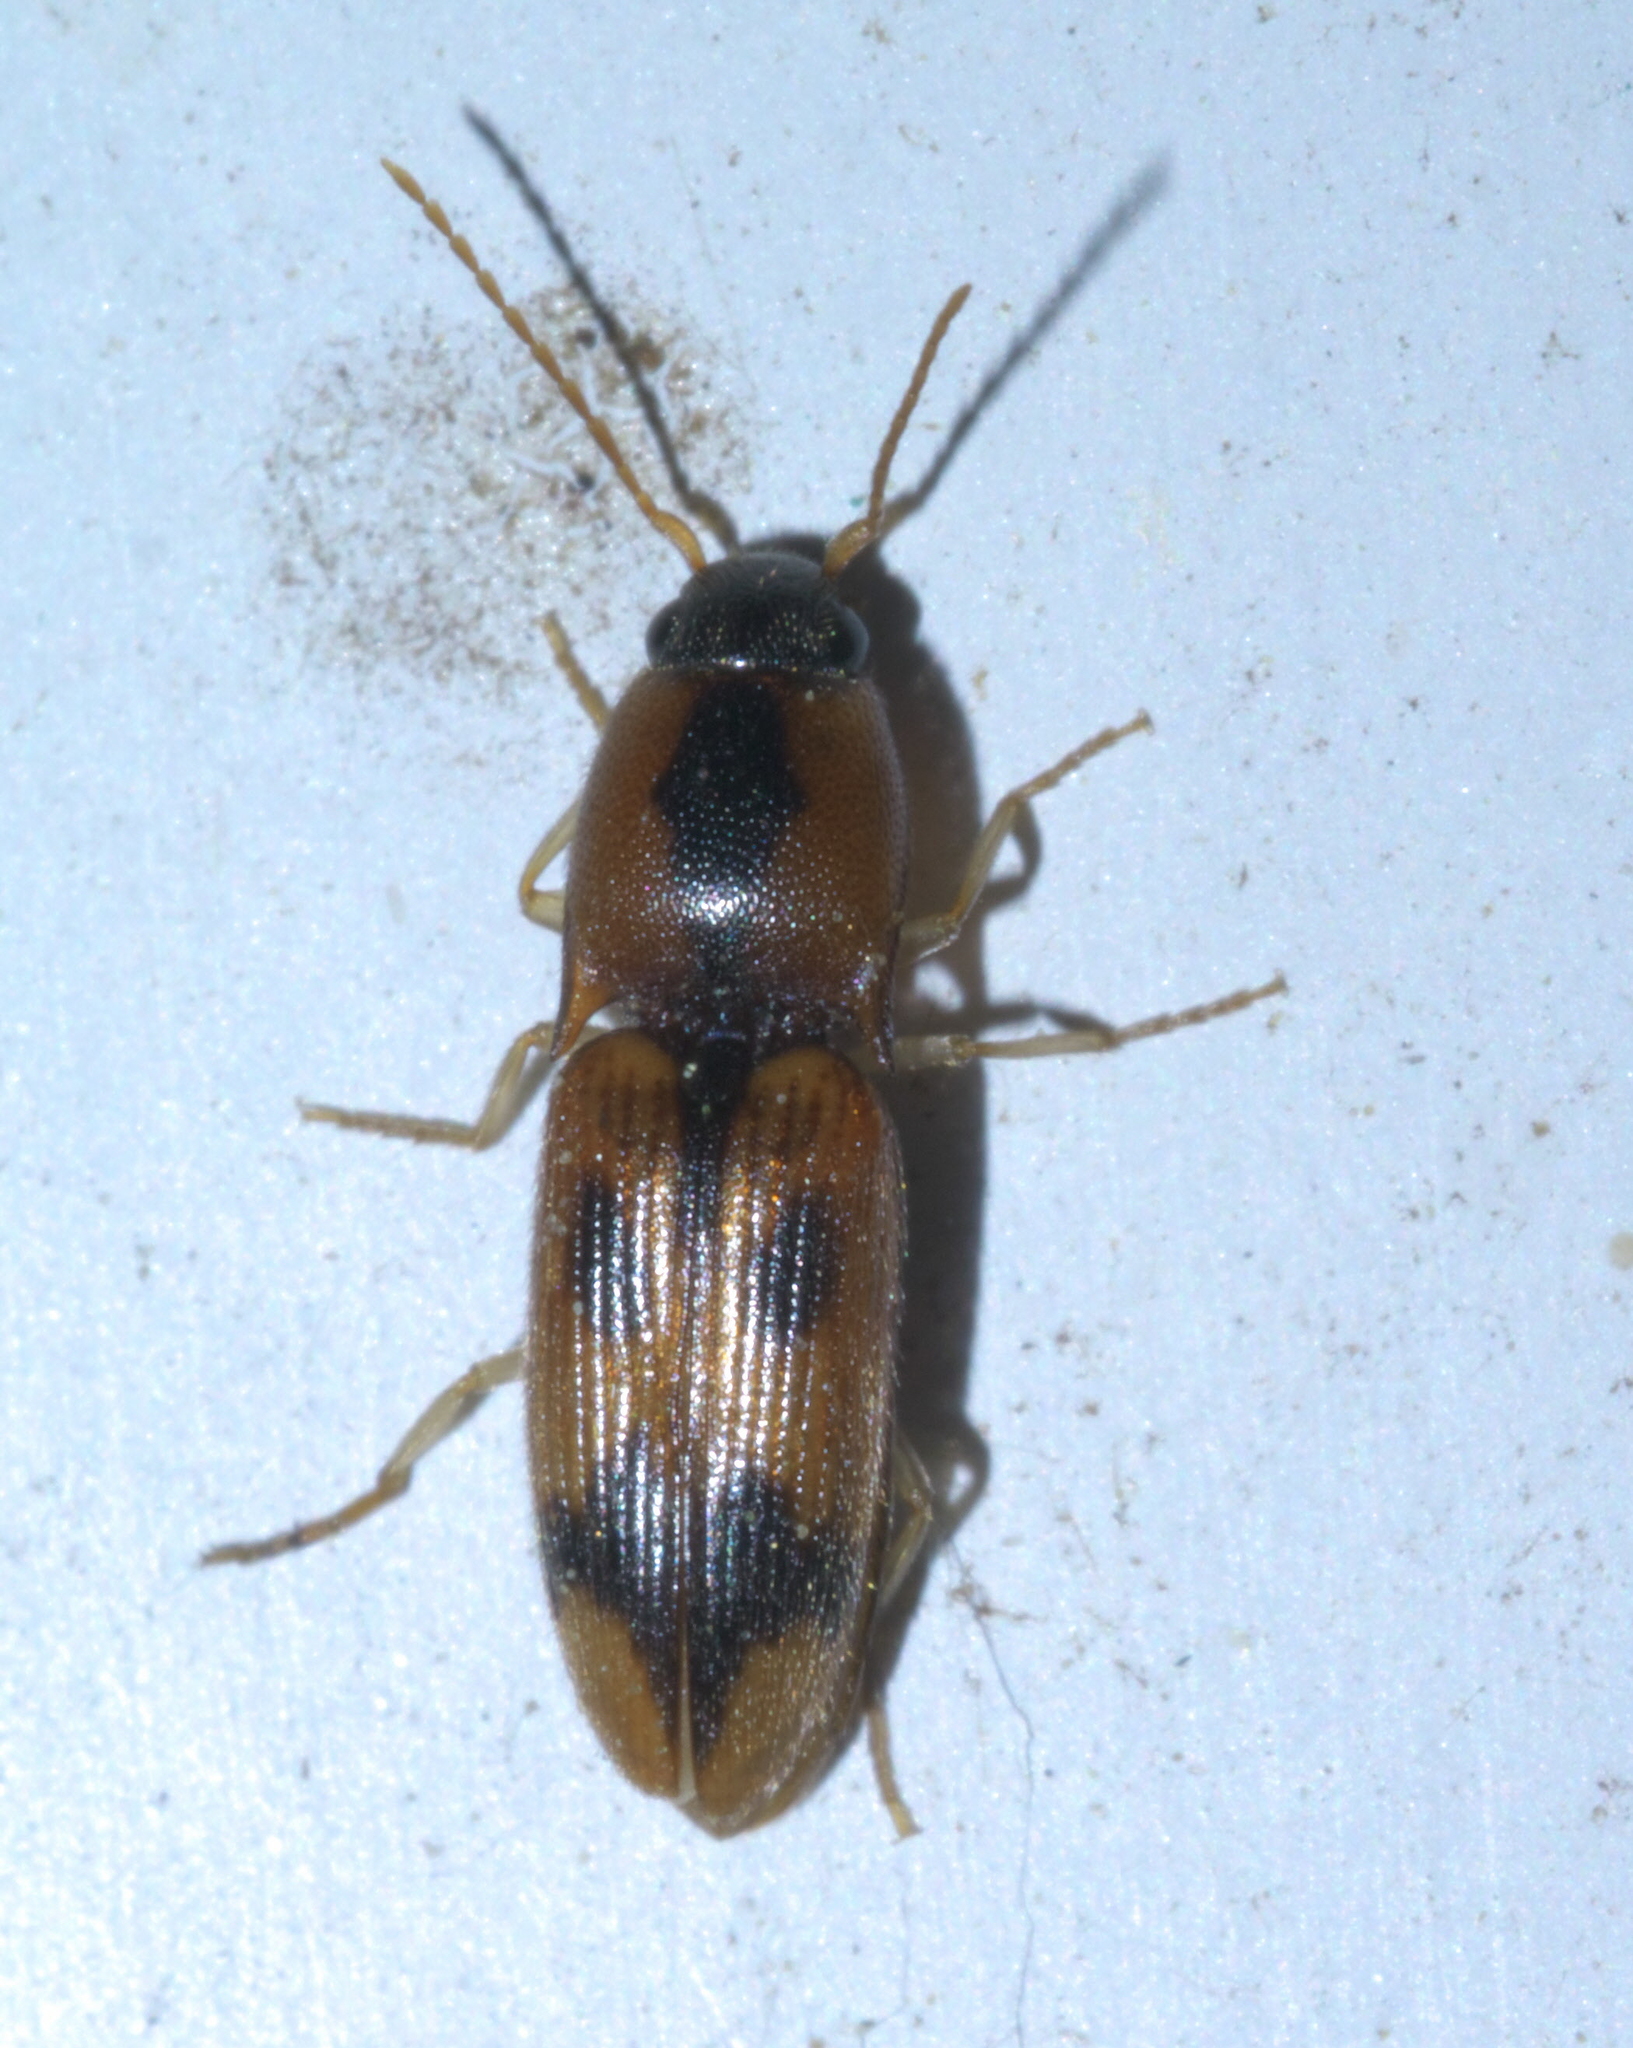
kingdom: Animalia
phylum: Arthropoda
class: Insecta
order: Coleoptera
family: Elateridae
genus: Aeolus
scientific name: Aeolus mellillus
